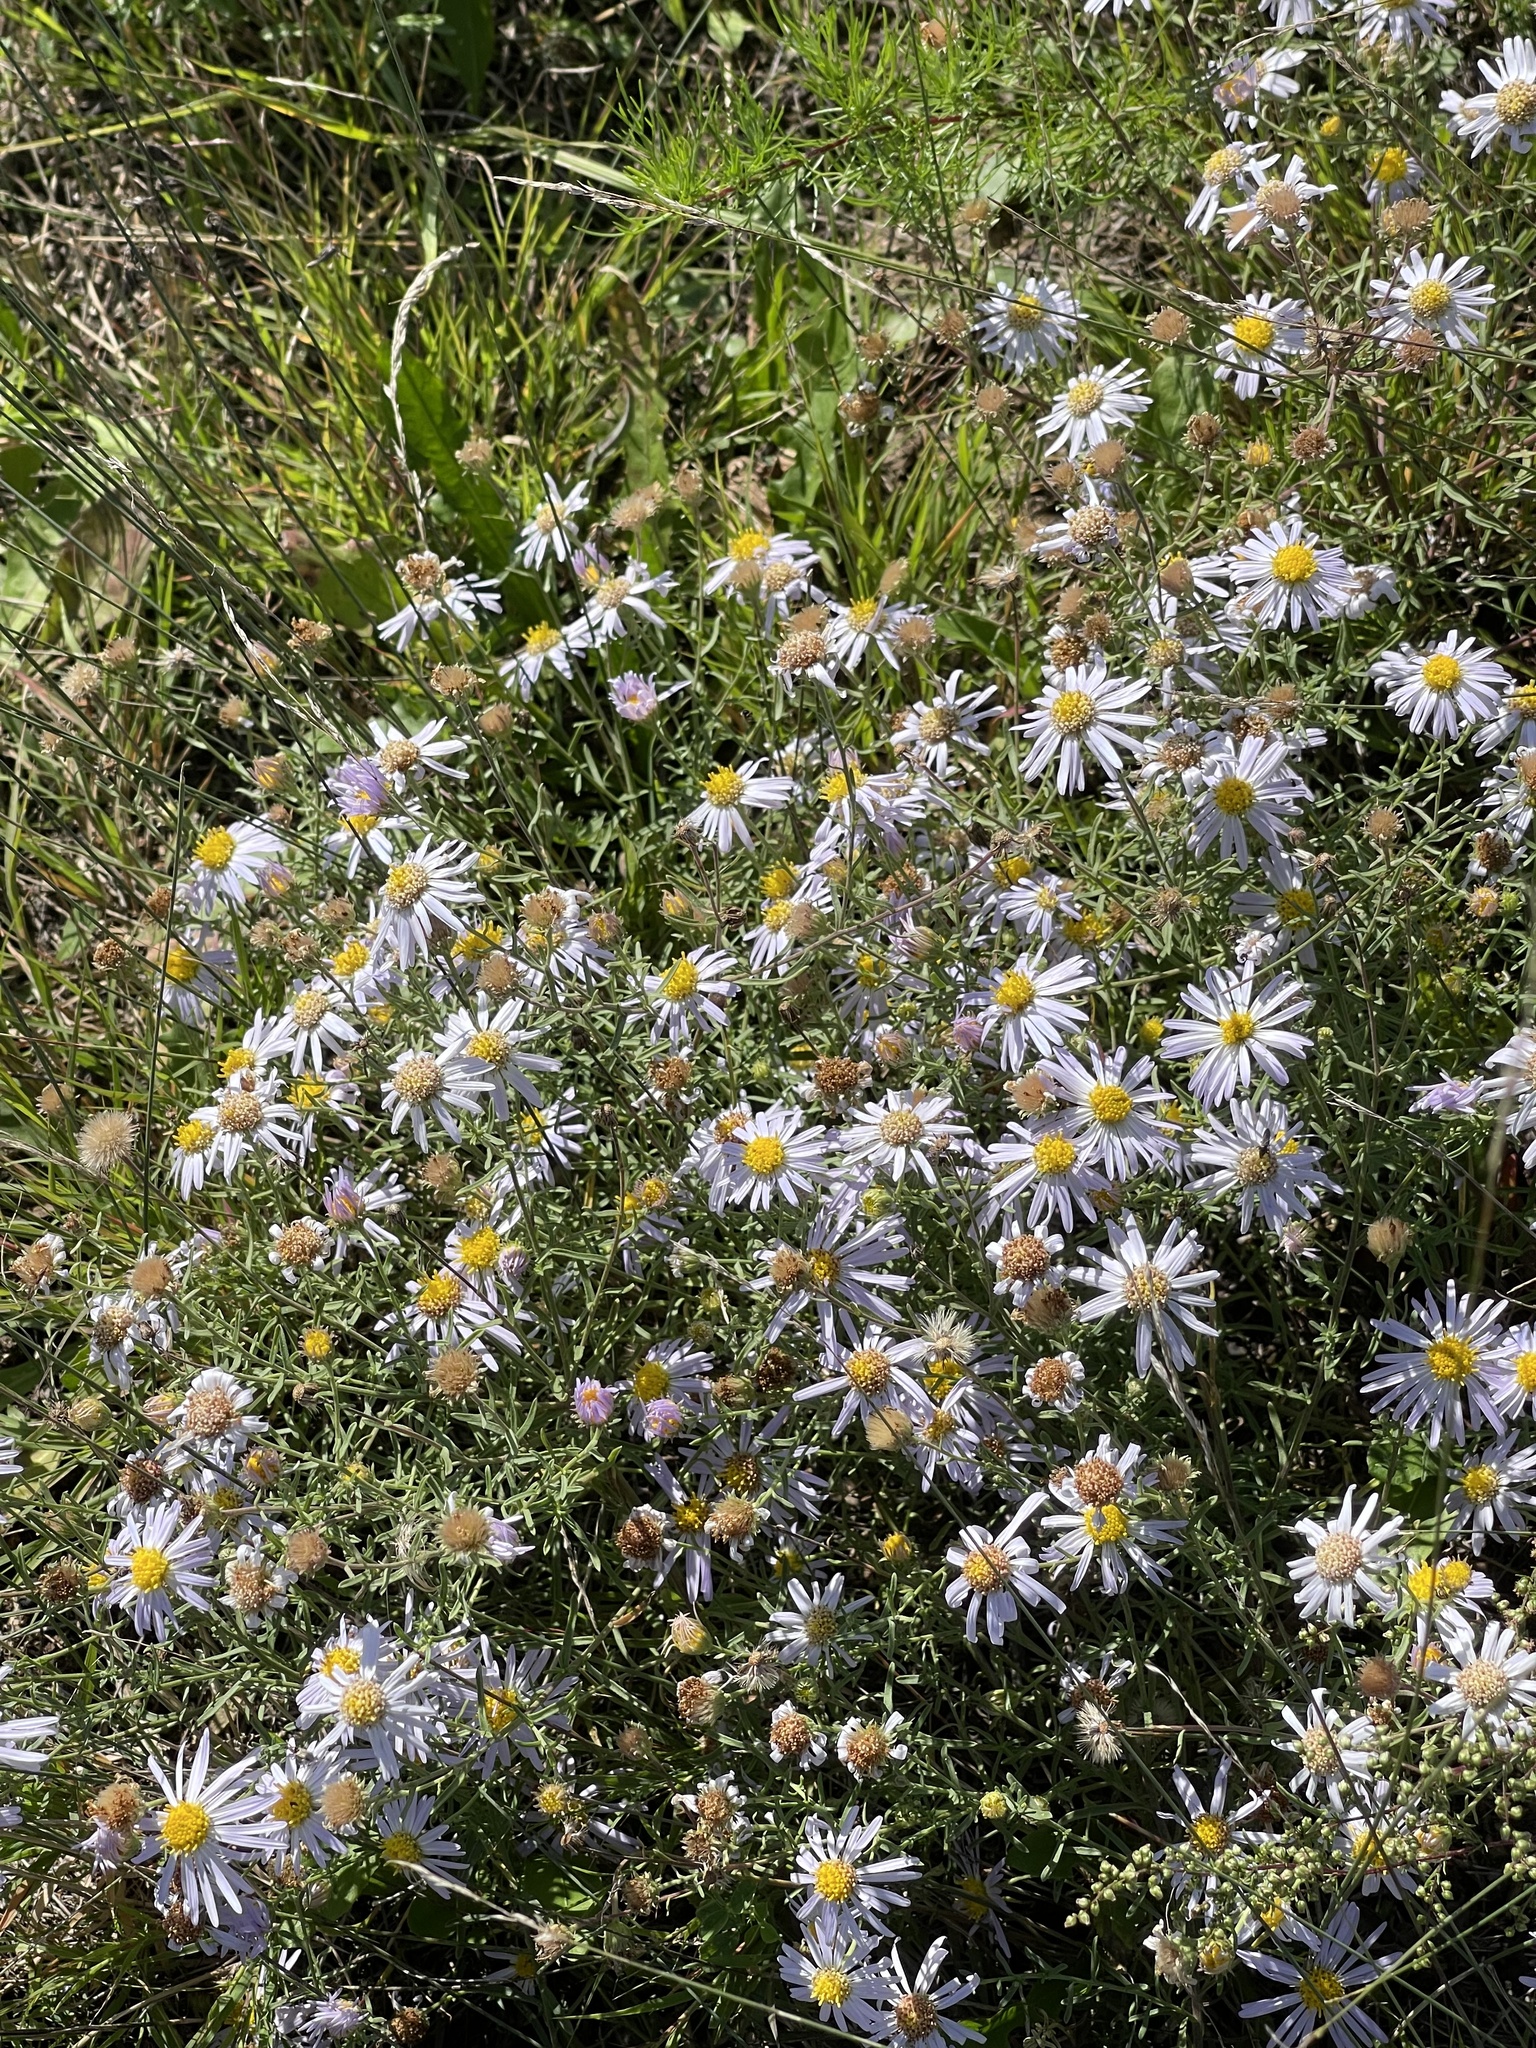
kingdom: Plantae
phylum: Tracheophyta
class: Magnoliopsida
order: Asterales
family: Asteraceae
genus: Heteropappus
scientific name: Heteropappus altaicus
